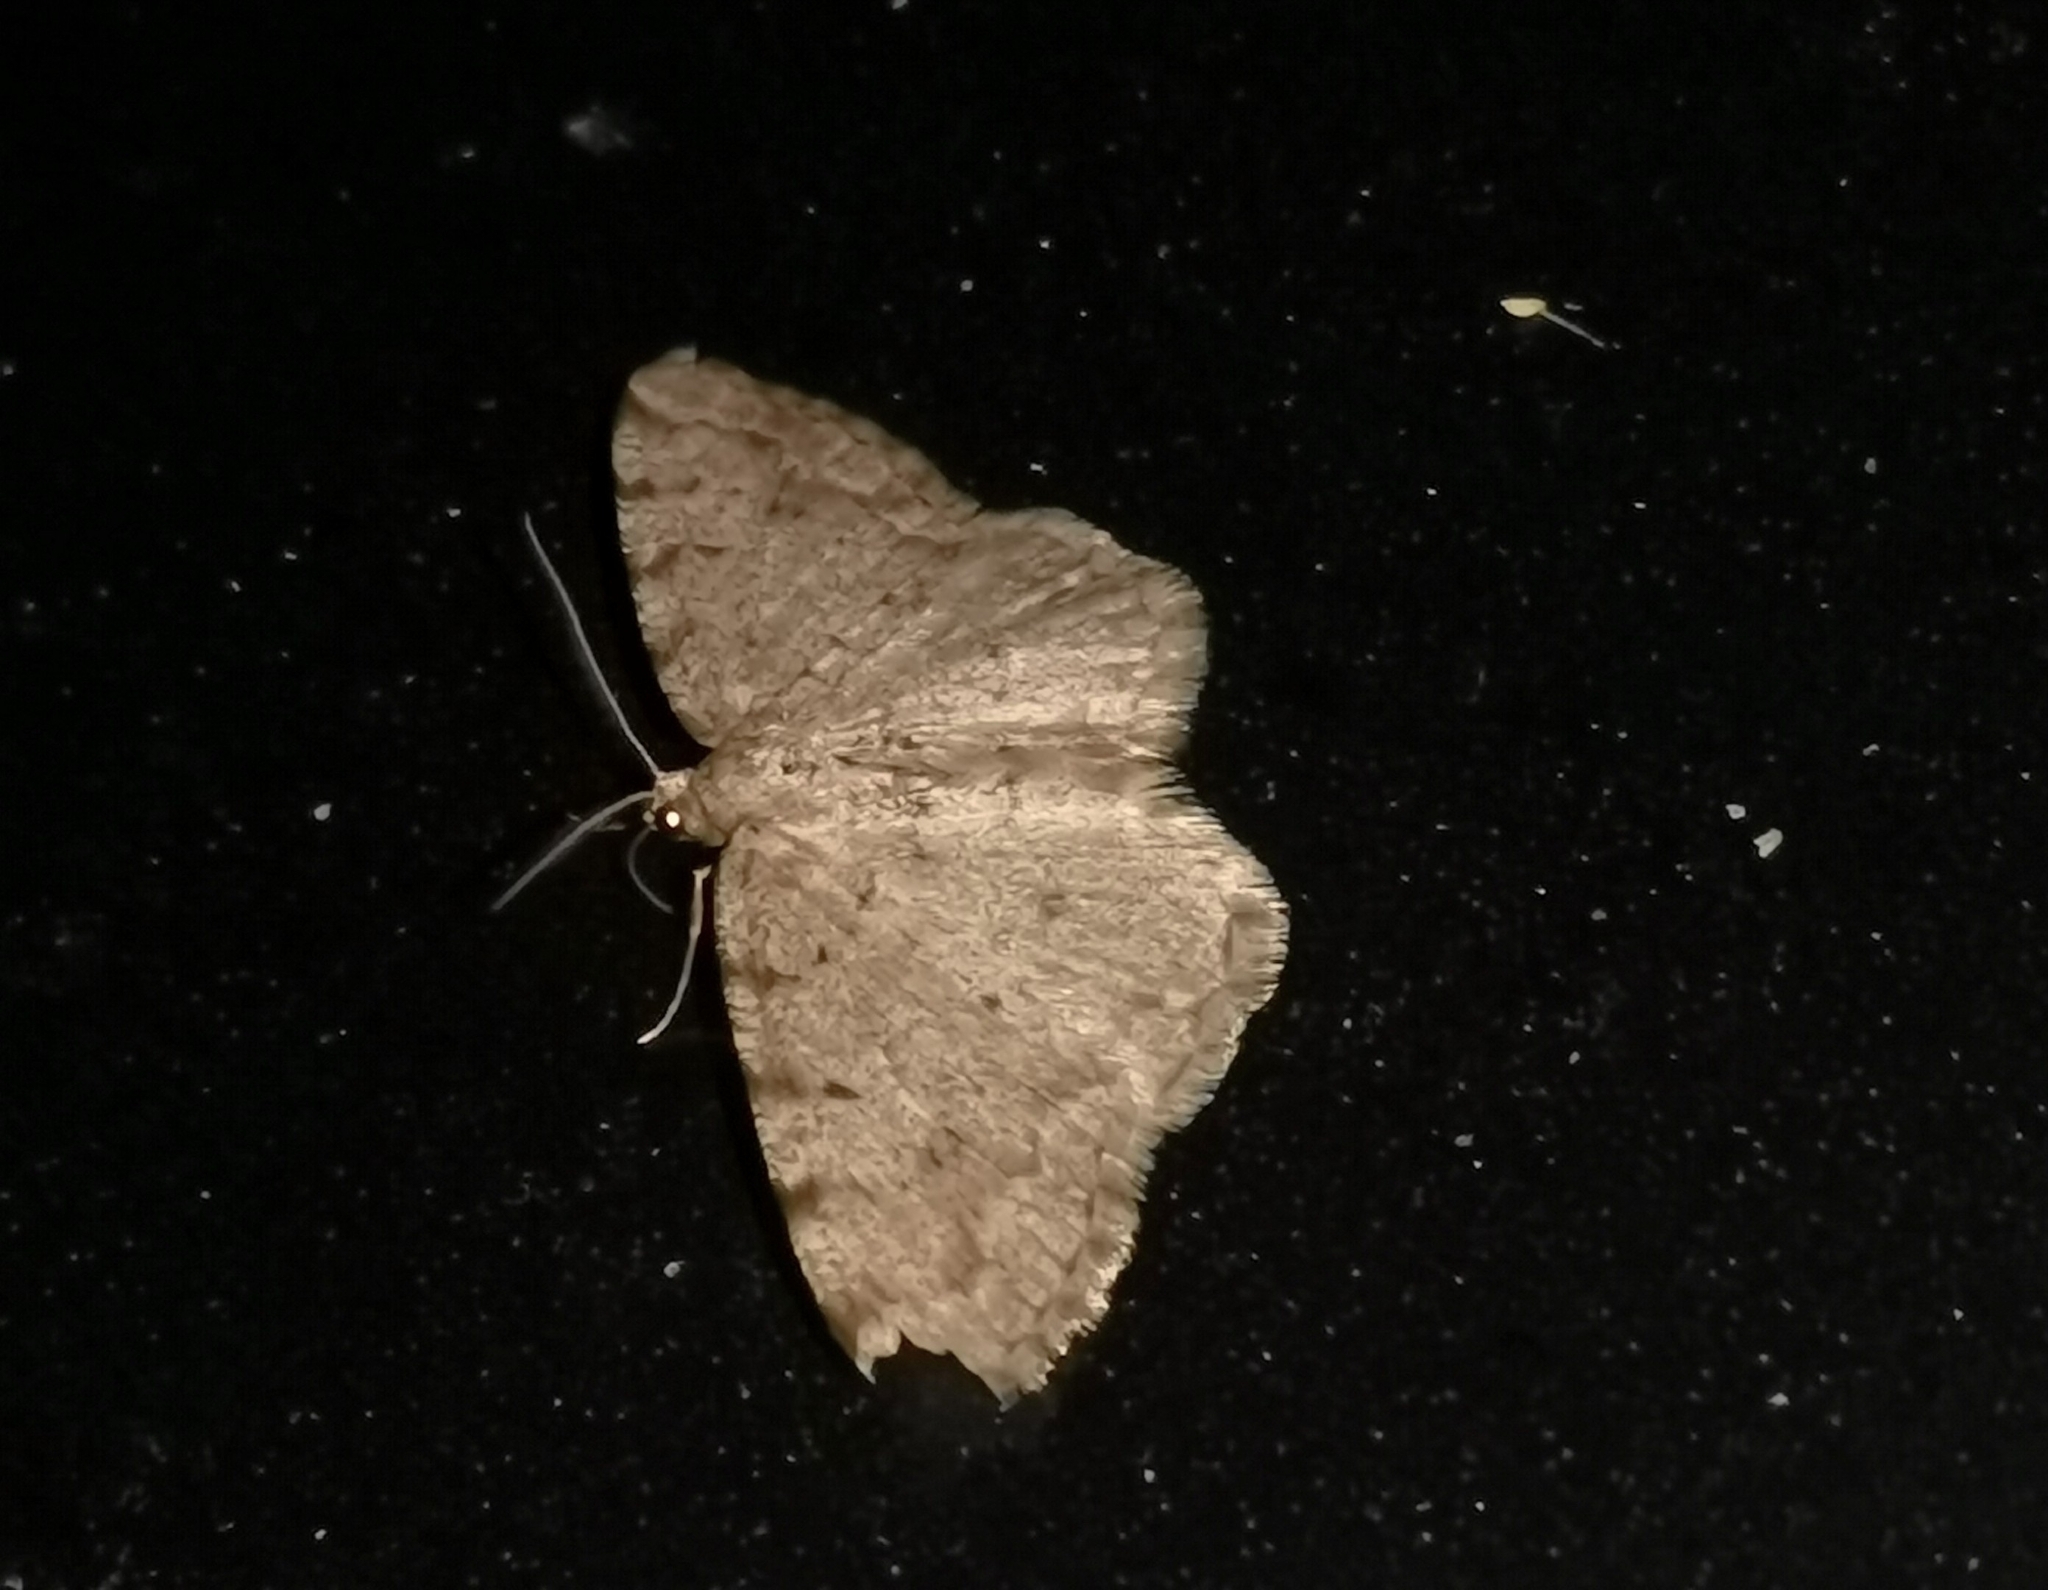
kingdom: Animalia
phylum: Arthropoda
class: Insecta
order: Lepidoptera
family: Geometridae
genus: Aethalura
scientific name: Aethalura punctulata
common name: Grey birch
